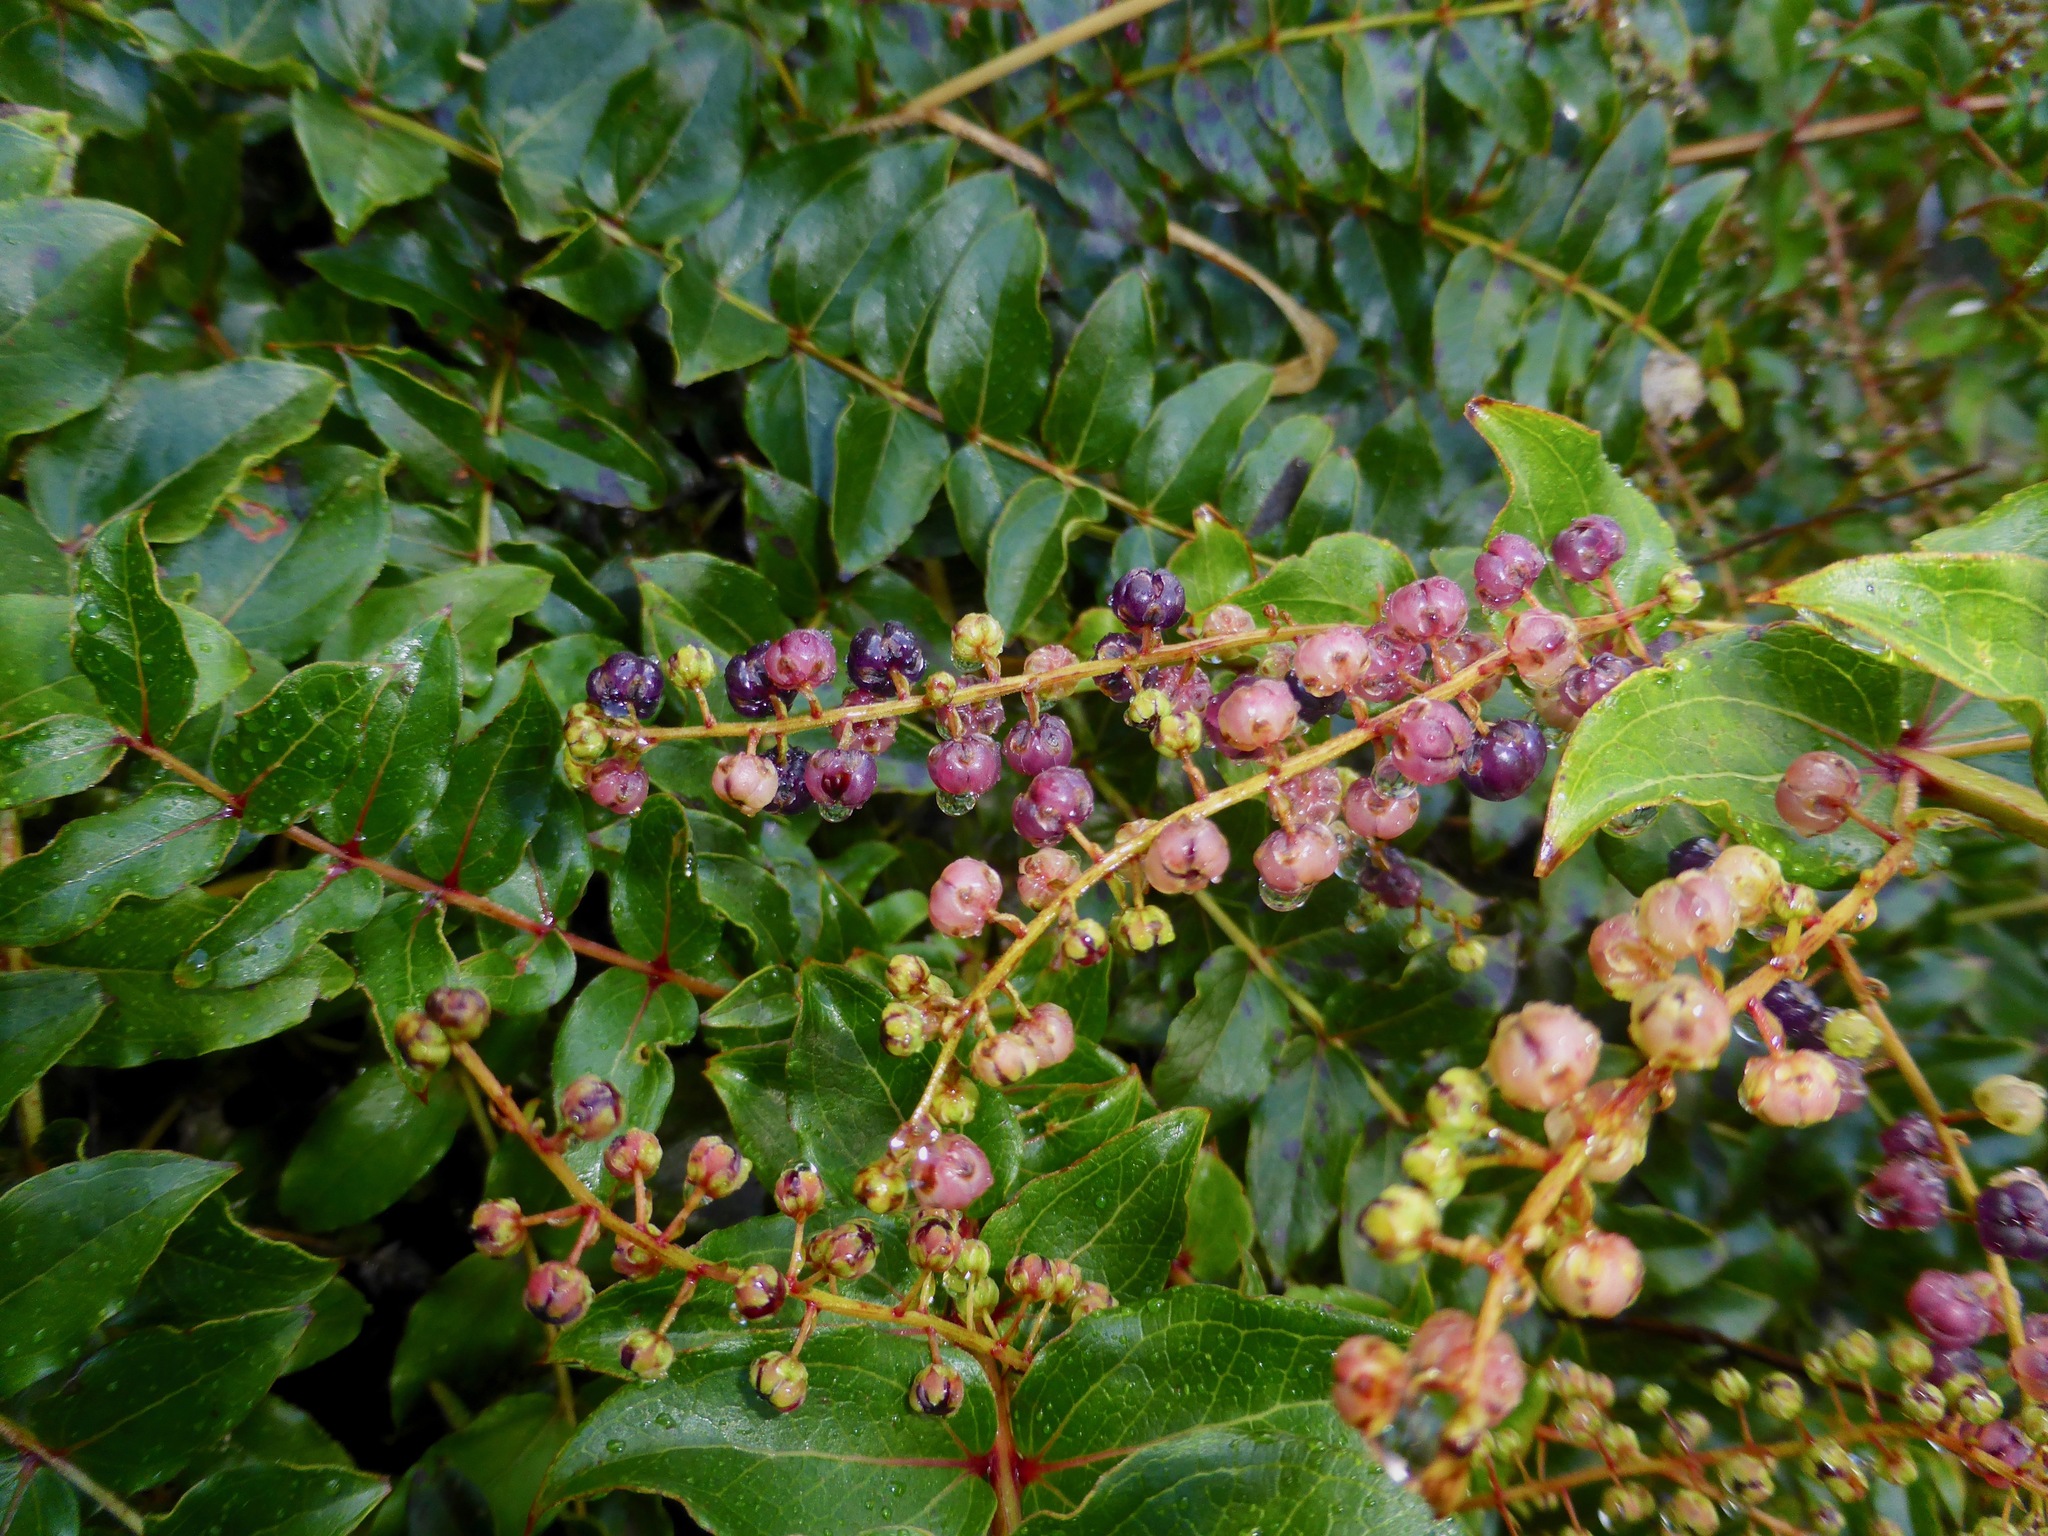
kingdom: Plantae
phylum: Tracheophyta
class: Magnoliopsida
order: Cucurbitales
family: Coriariaceae
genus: Coriaria
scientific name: Coriaria arborea
